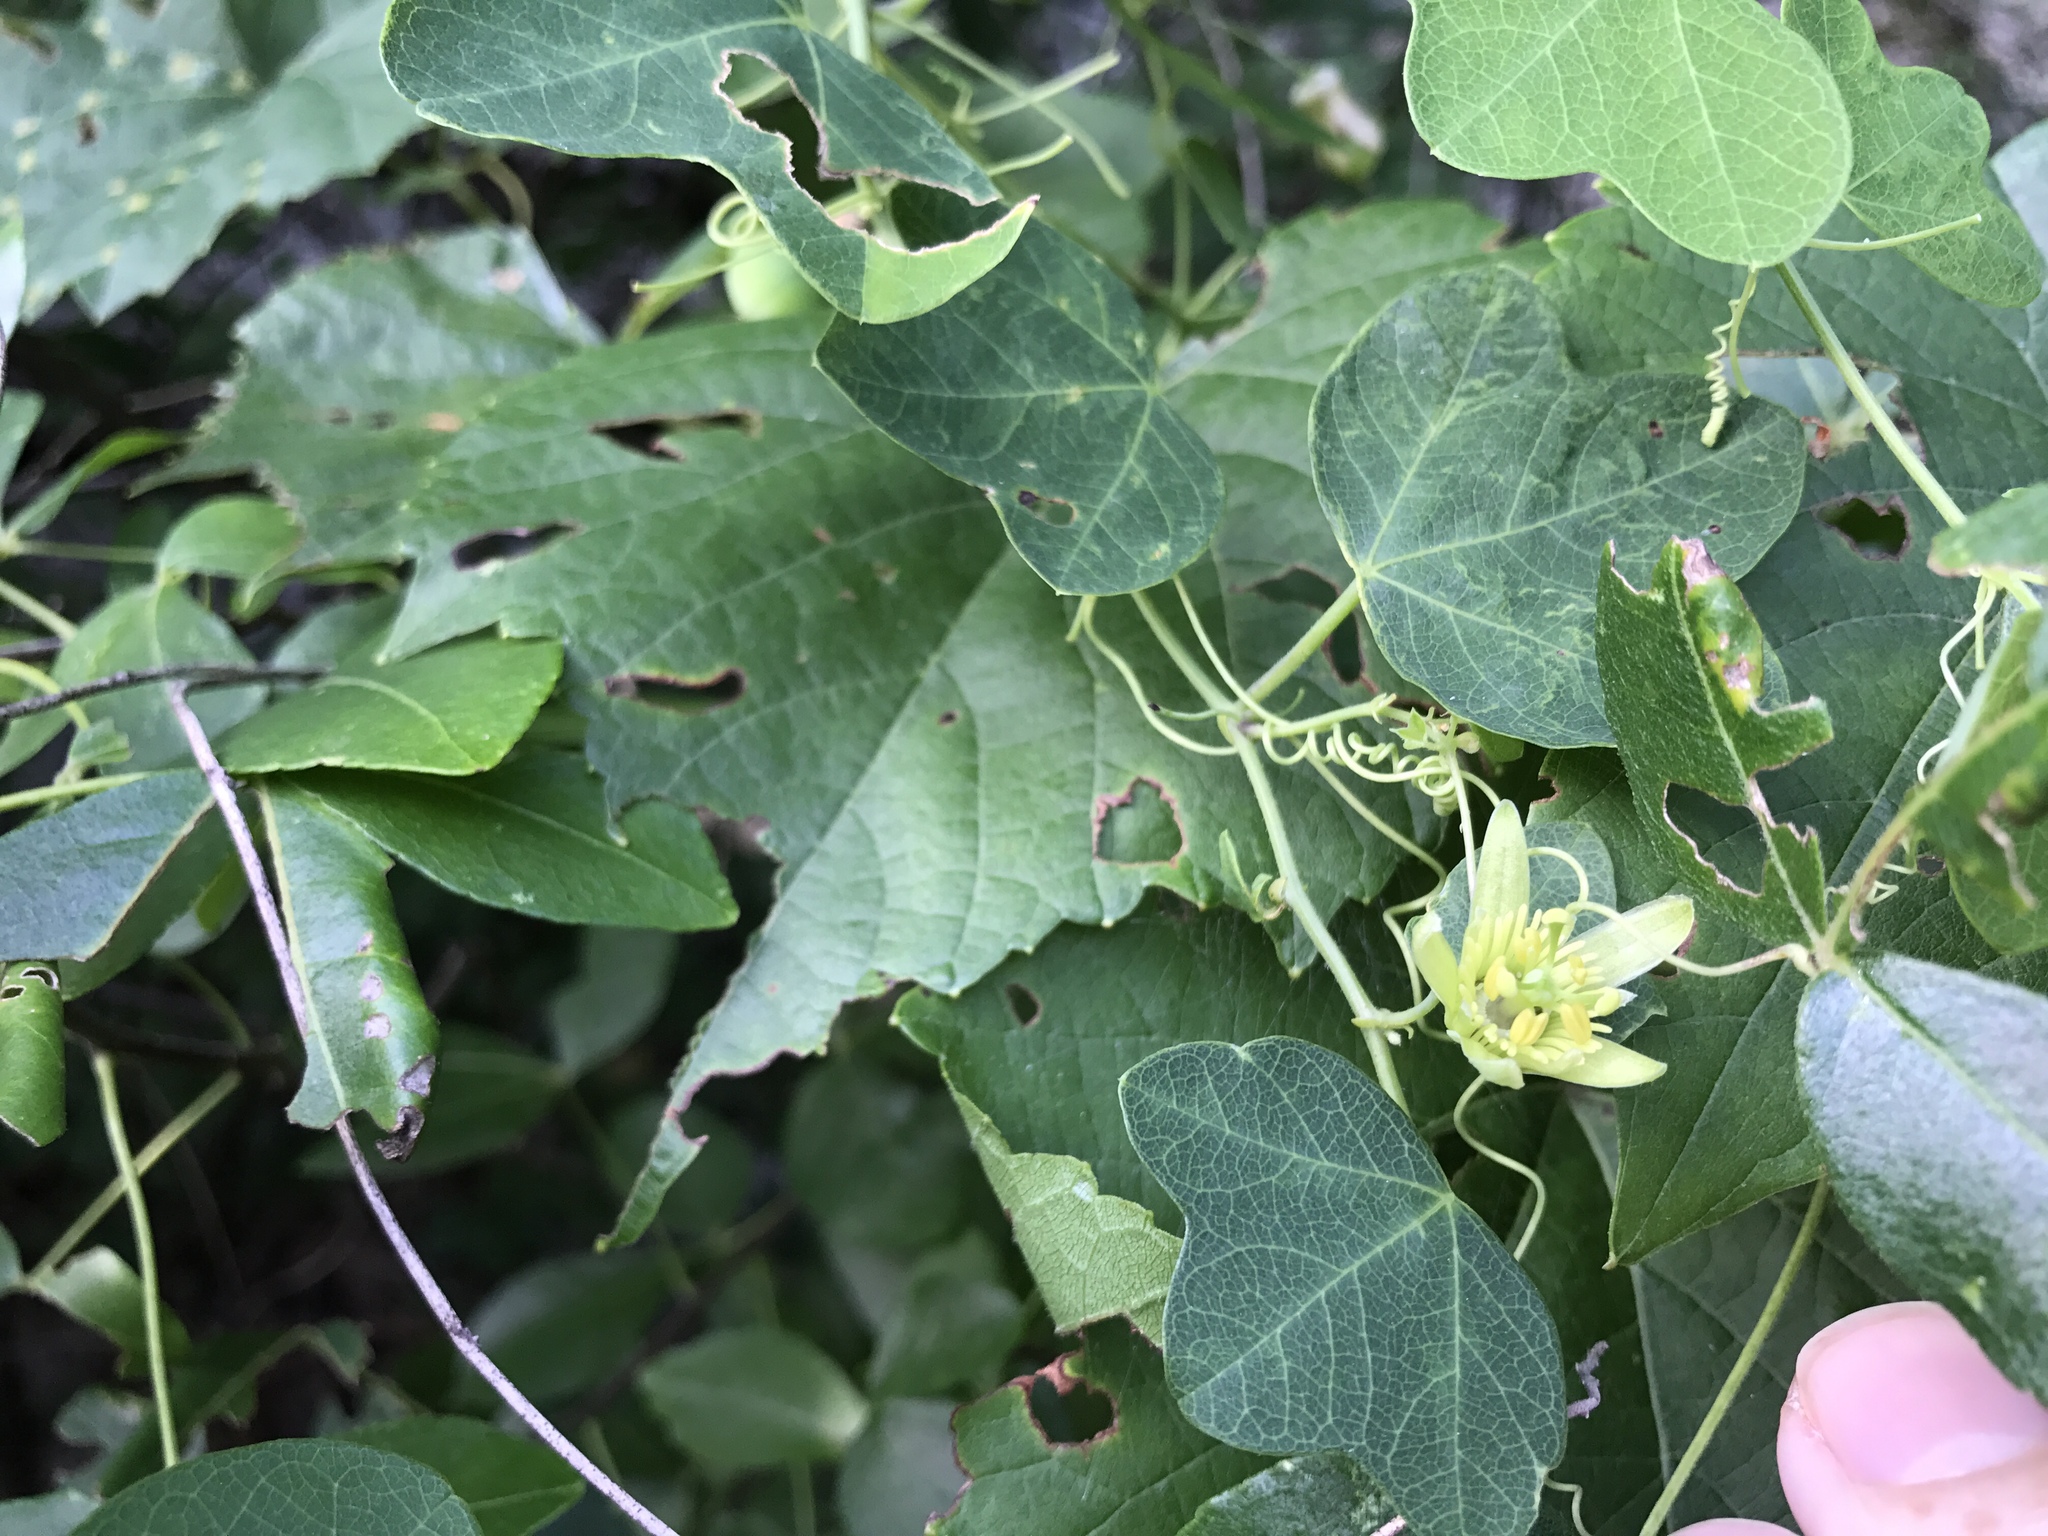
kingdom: Plantae
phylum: Tracheophyta
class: Magnoliopsida
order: Malpighiales
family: Passifloraceae
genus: Passiflora
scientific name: Passiflora lutea
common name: Yellow passionflower
